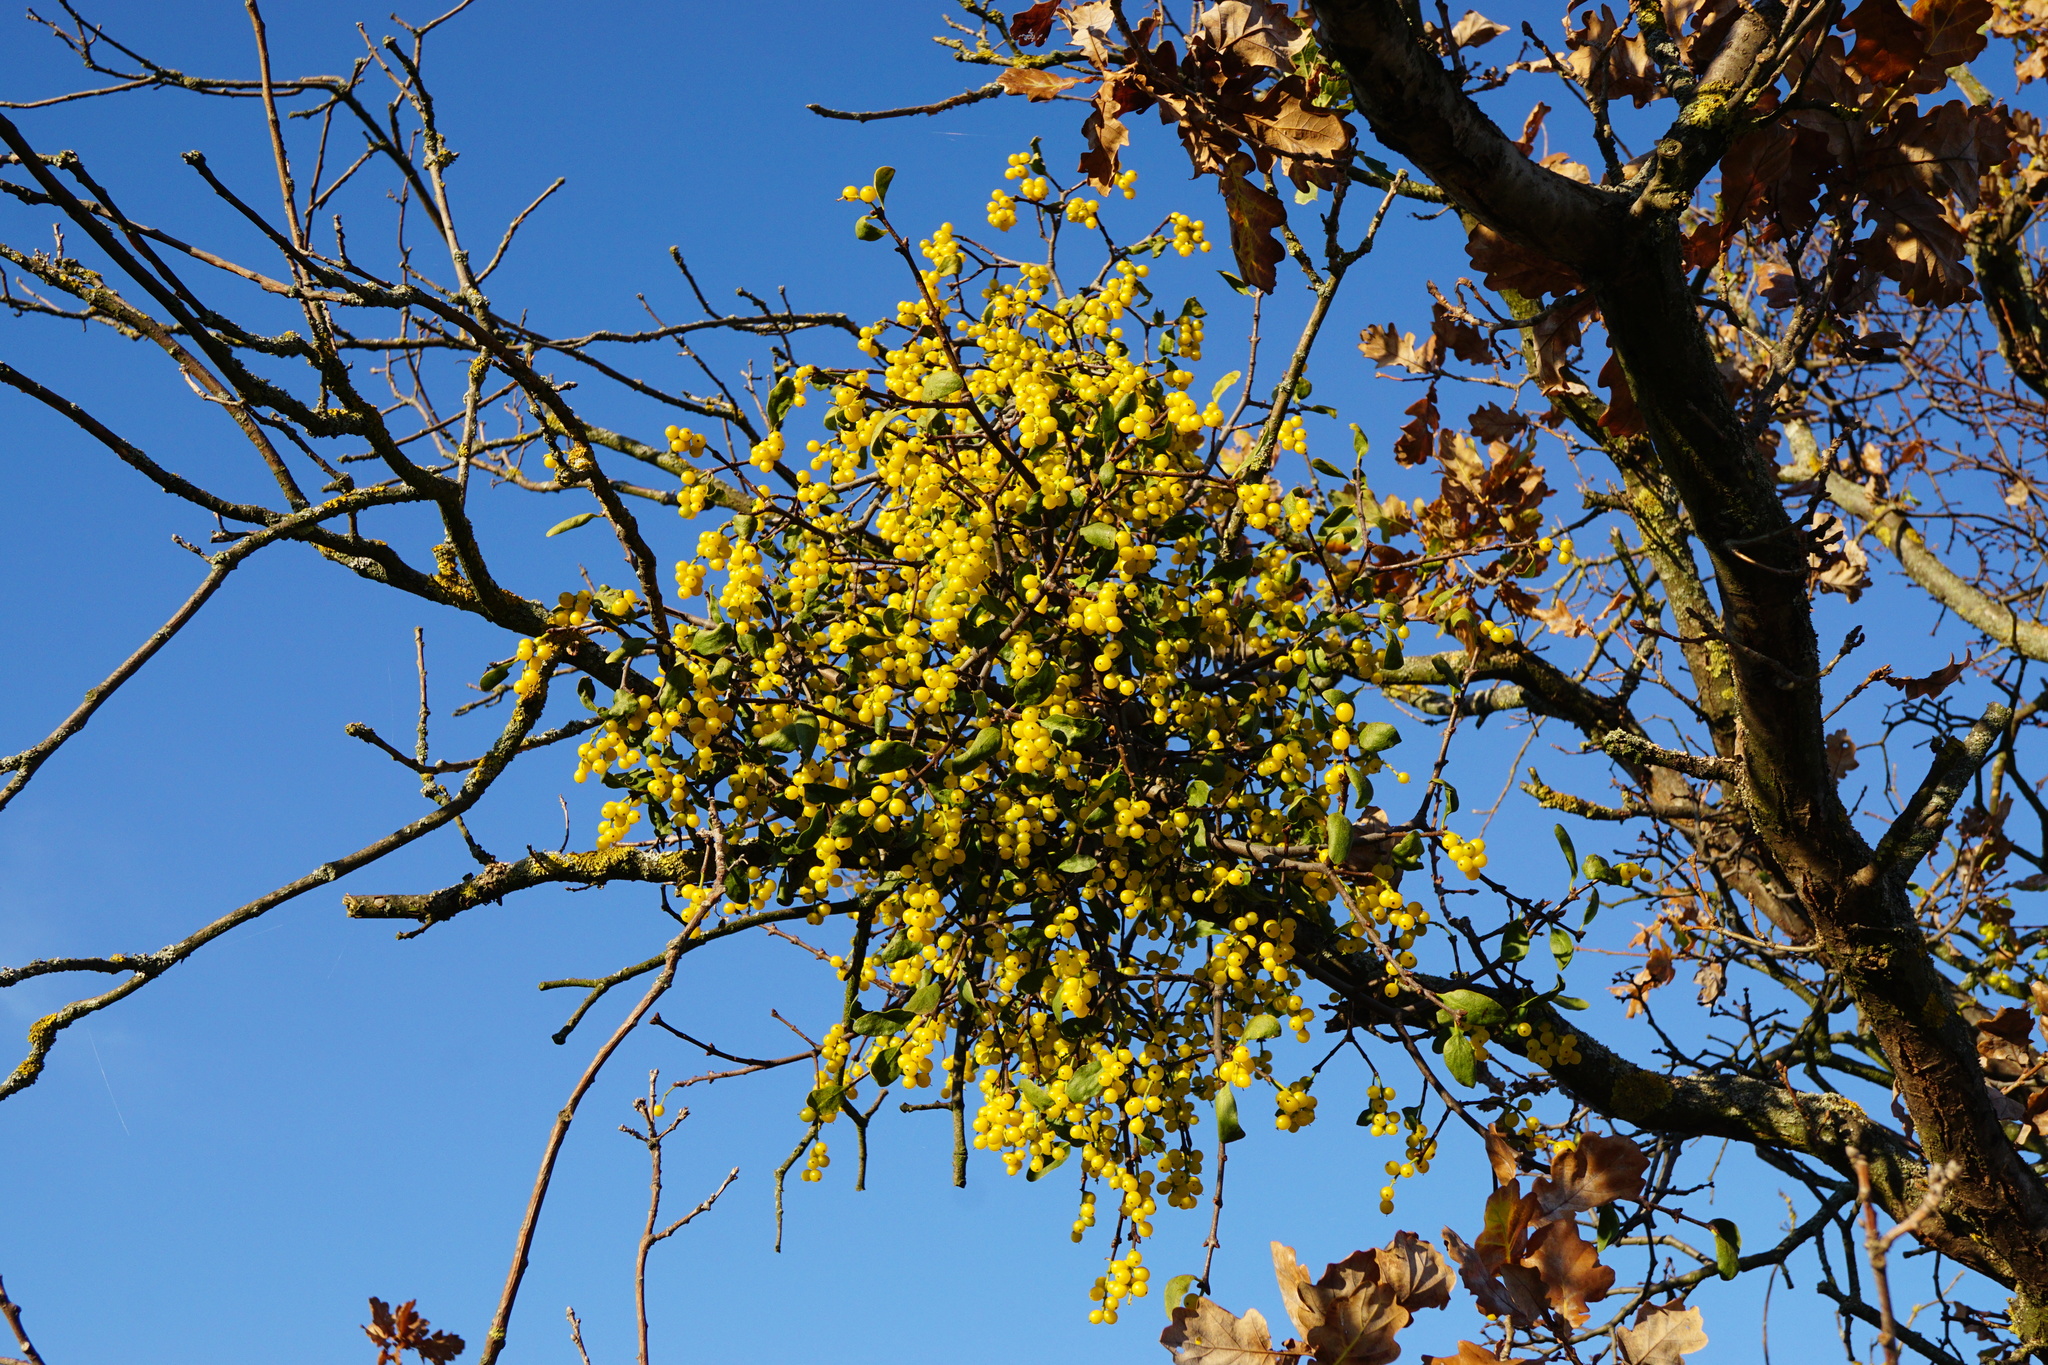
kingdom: Plantae
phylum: Tracheophyta
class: Magnoliopsida
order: Santalales
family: Loranthaceae
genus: Loranthus
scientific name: Loranthus europaeus
